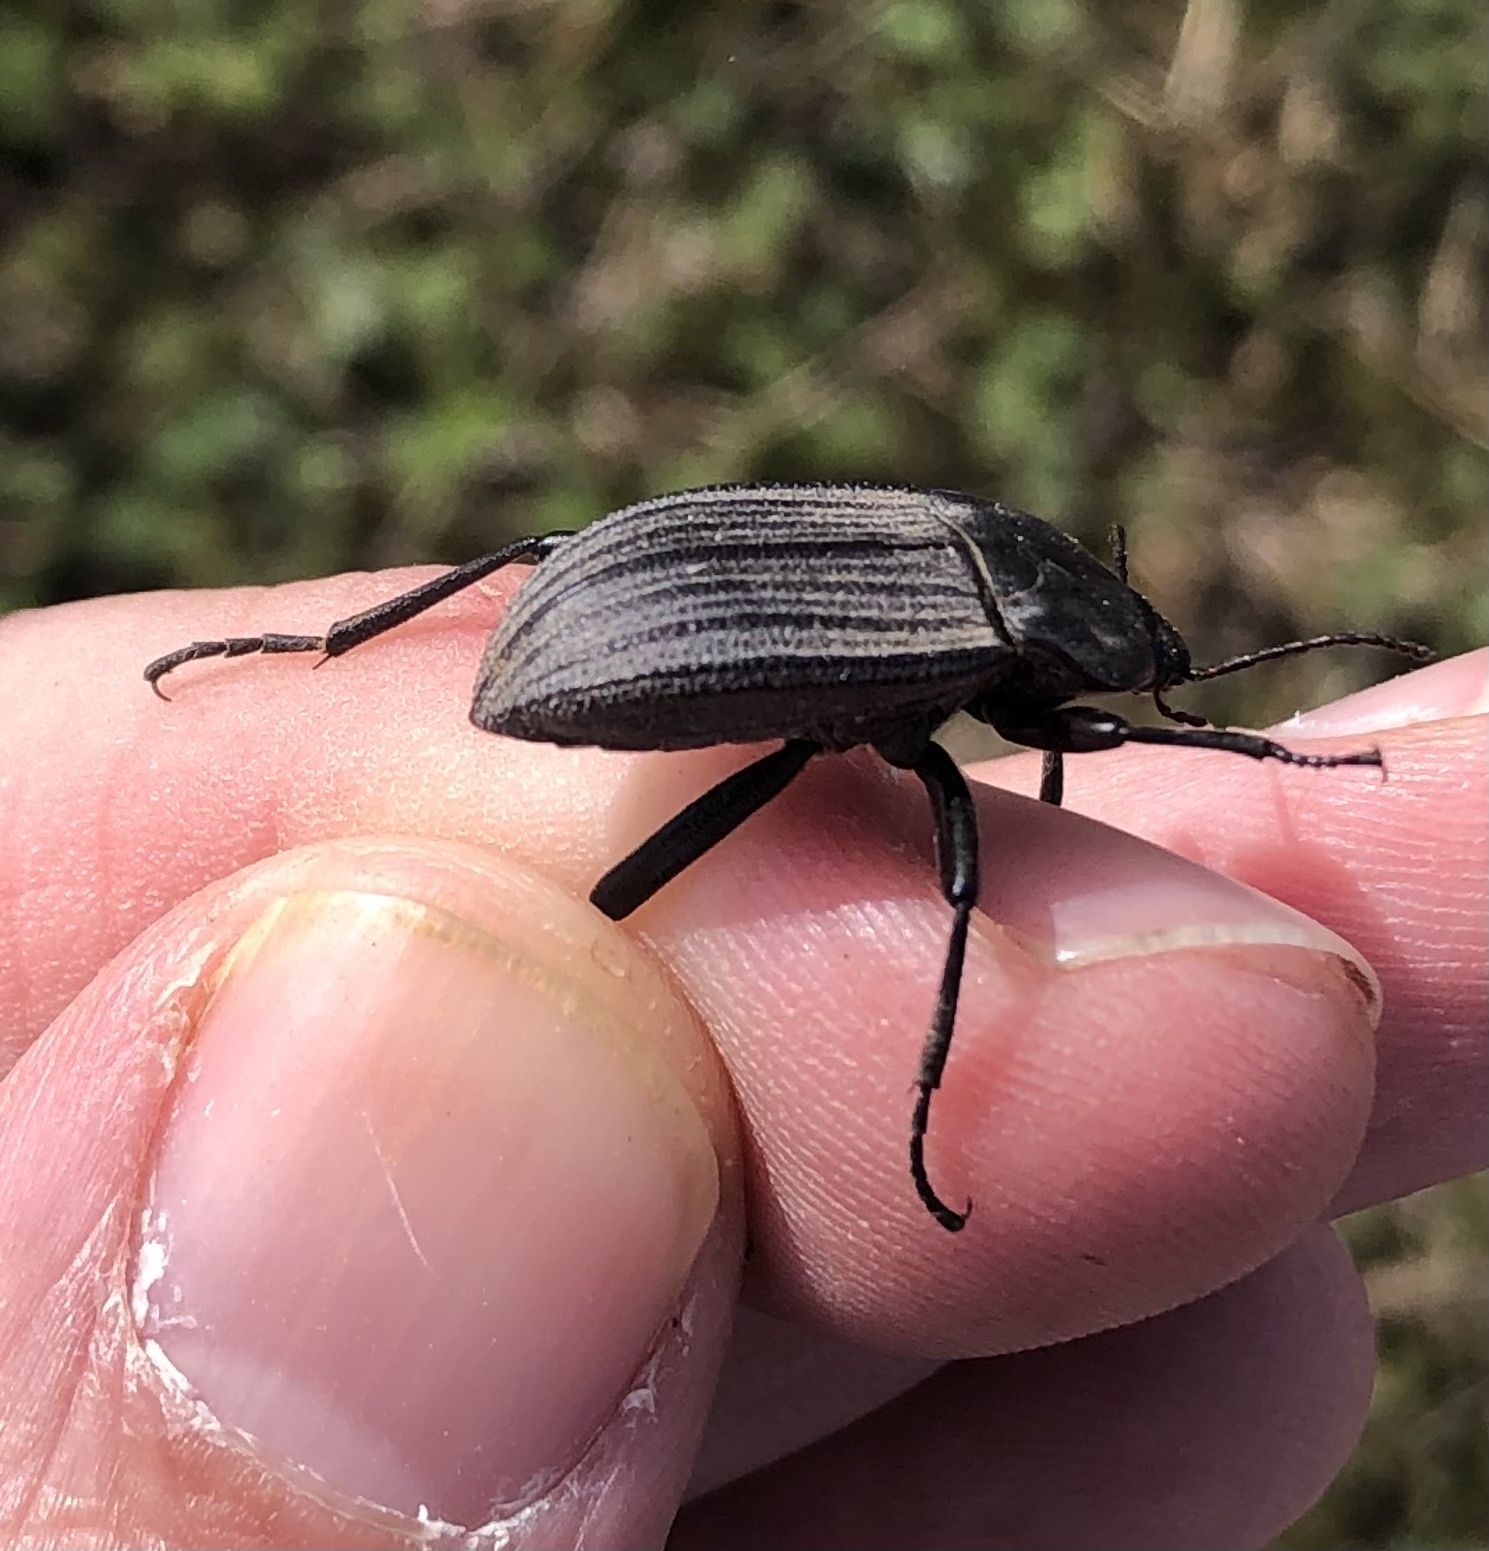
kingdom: Animalia
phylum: Arthropoda
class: Insecta
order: Coleoptera
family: Tenebrionidae
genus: Eleodes
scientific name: Eleodes tricostata
